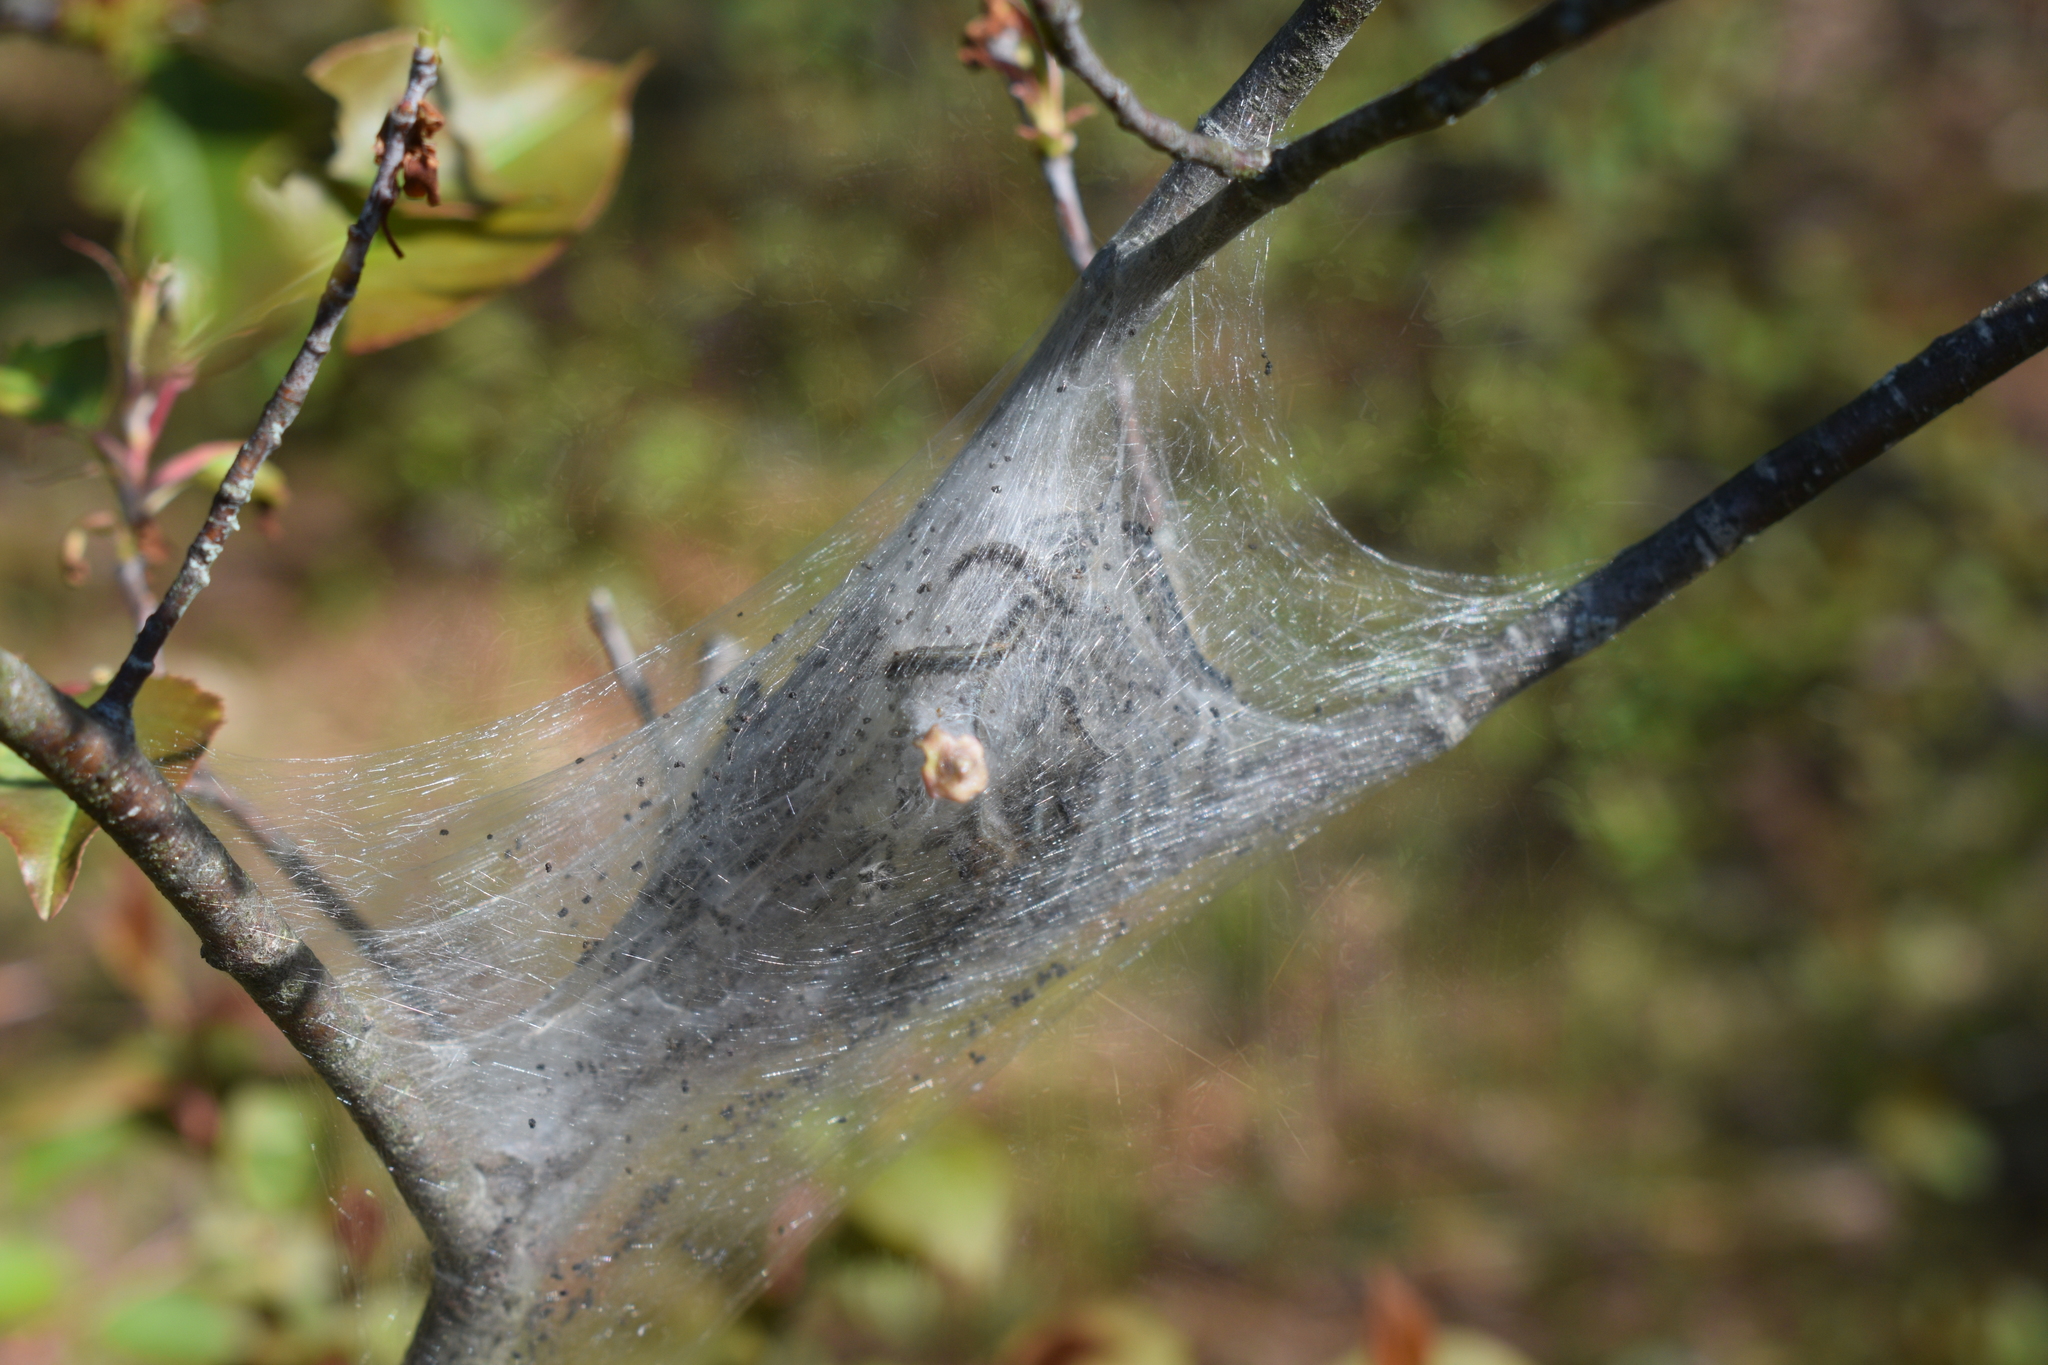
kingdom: Animalia
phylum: Arthropoda
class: Insecta
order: Lepidoptera
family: Lasiocampidae
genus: Malacosoma
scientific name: Malacosoma americana
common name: Eastern tent caterpillar moth
